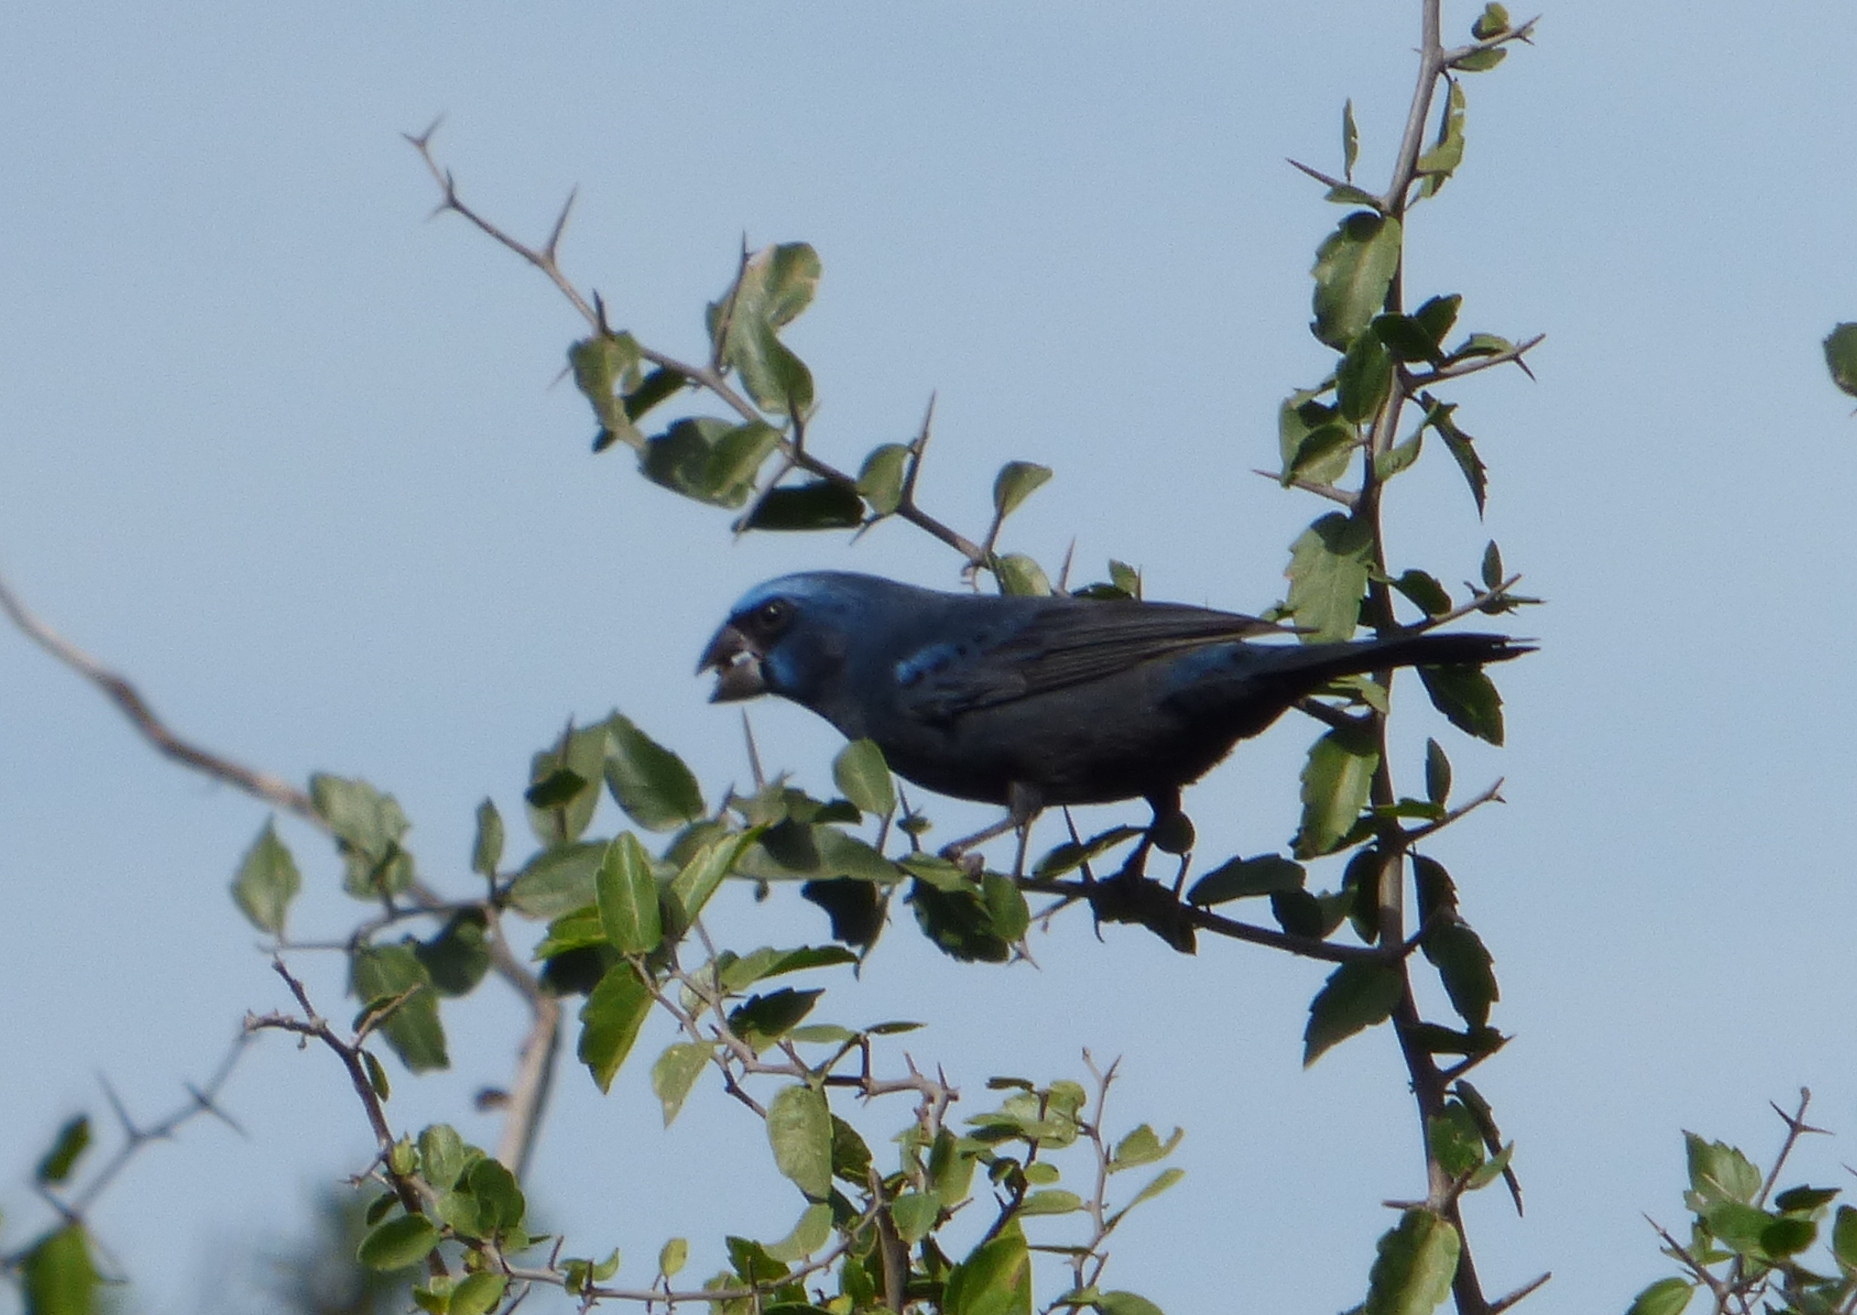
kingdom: Animalia
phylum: Chordata
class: Aves
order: Passeriformes
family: Cardinalidae
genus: Cyanoloxia
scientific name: Cyanoloxia brissonii
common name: Ultramarine grosbeak
